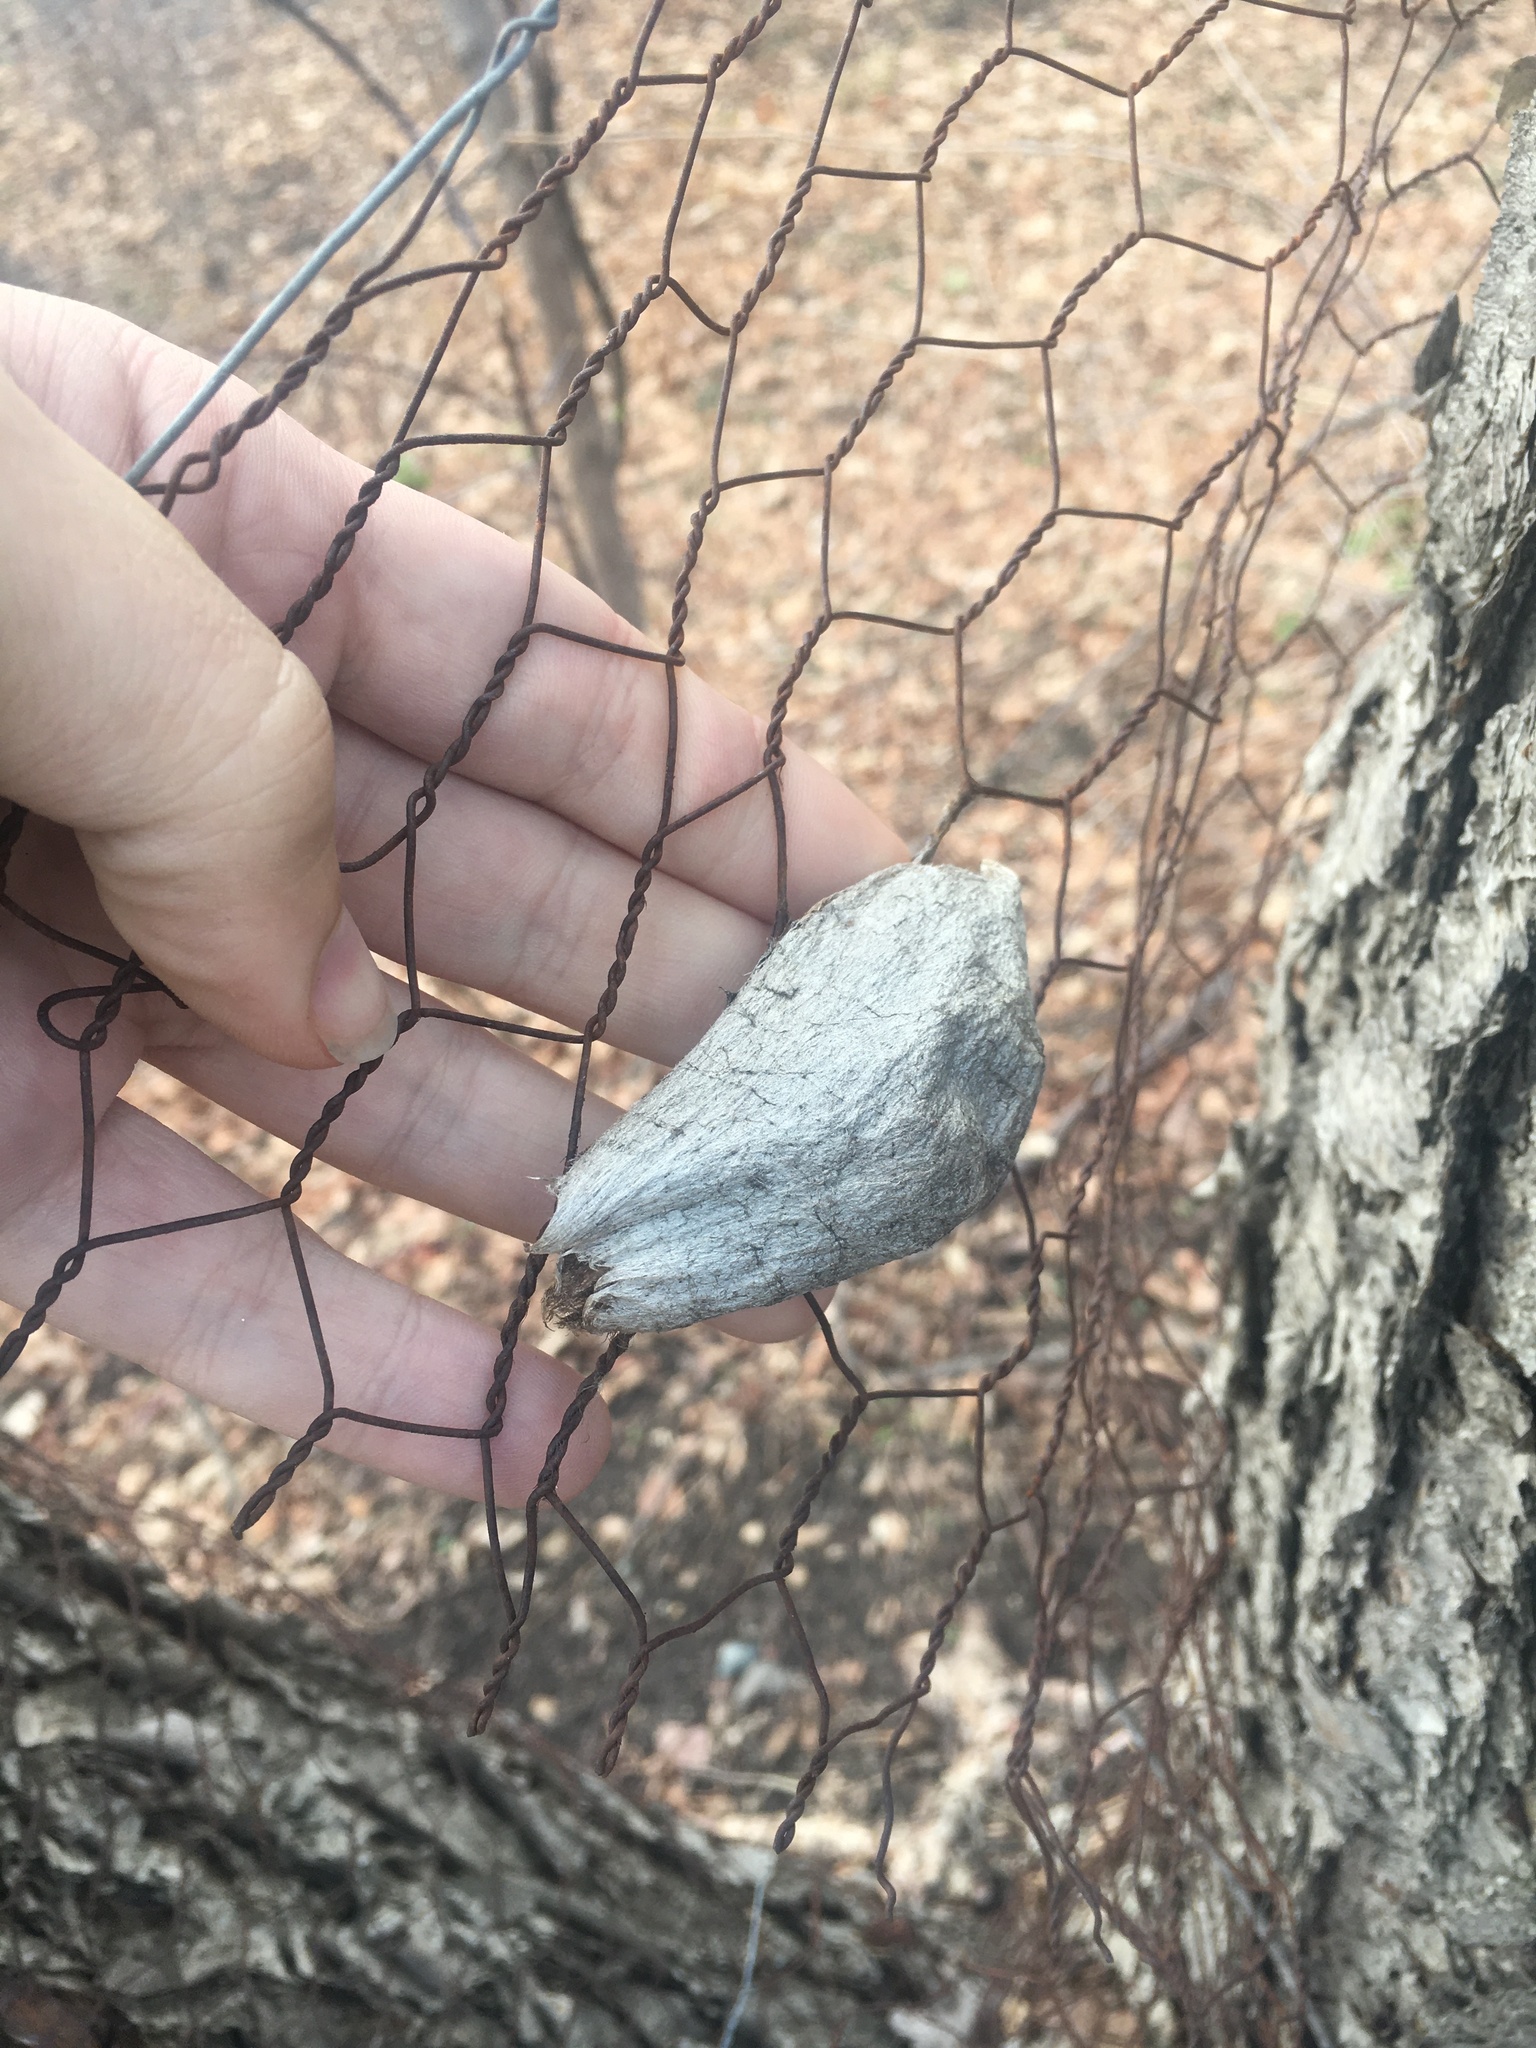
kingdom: Animalia
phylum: Arthropoda
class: Insecta
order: Lepidoptera
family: Saturniidae
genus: Hyalophora
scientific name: Hyalophora cecropia
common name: Cecropia silkmoth
